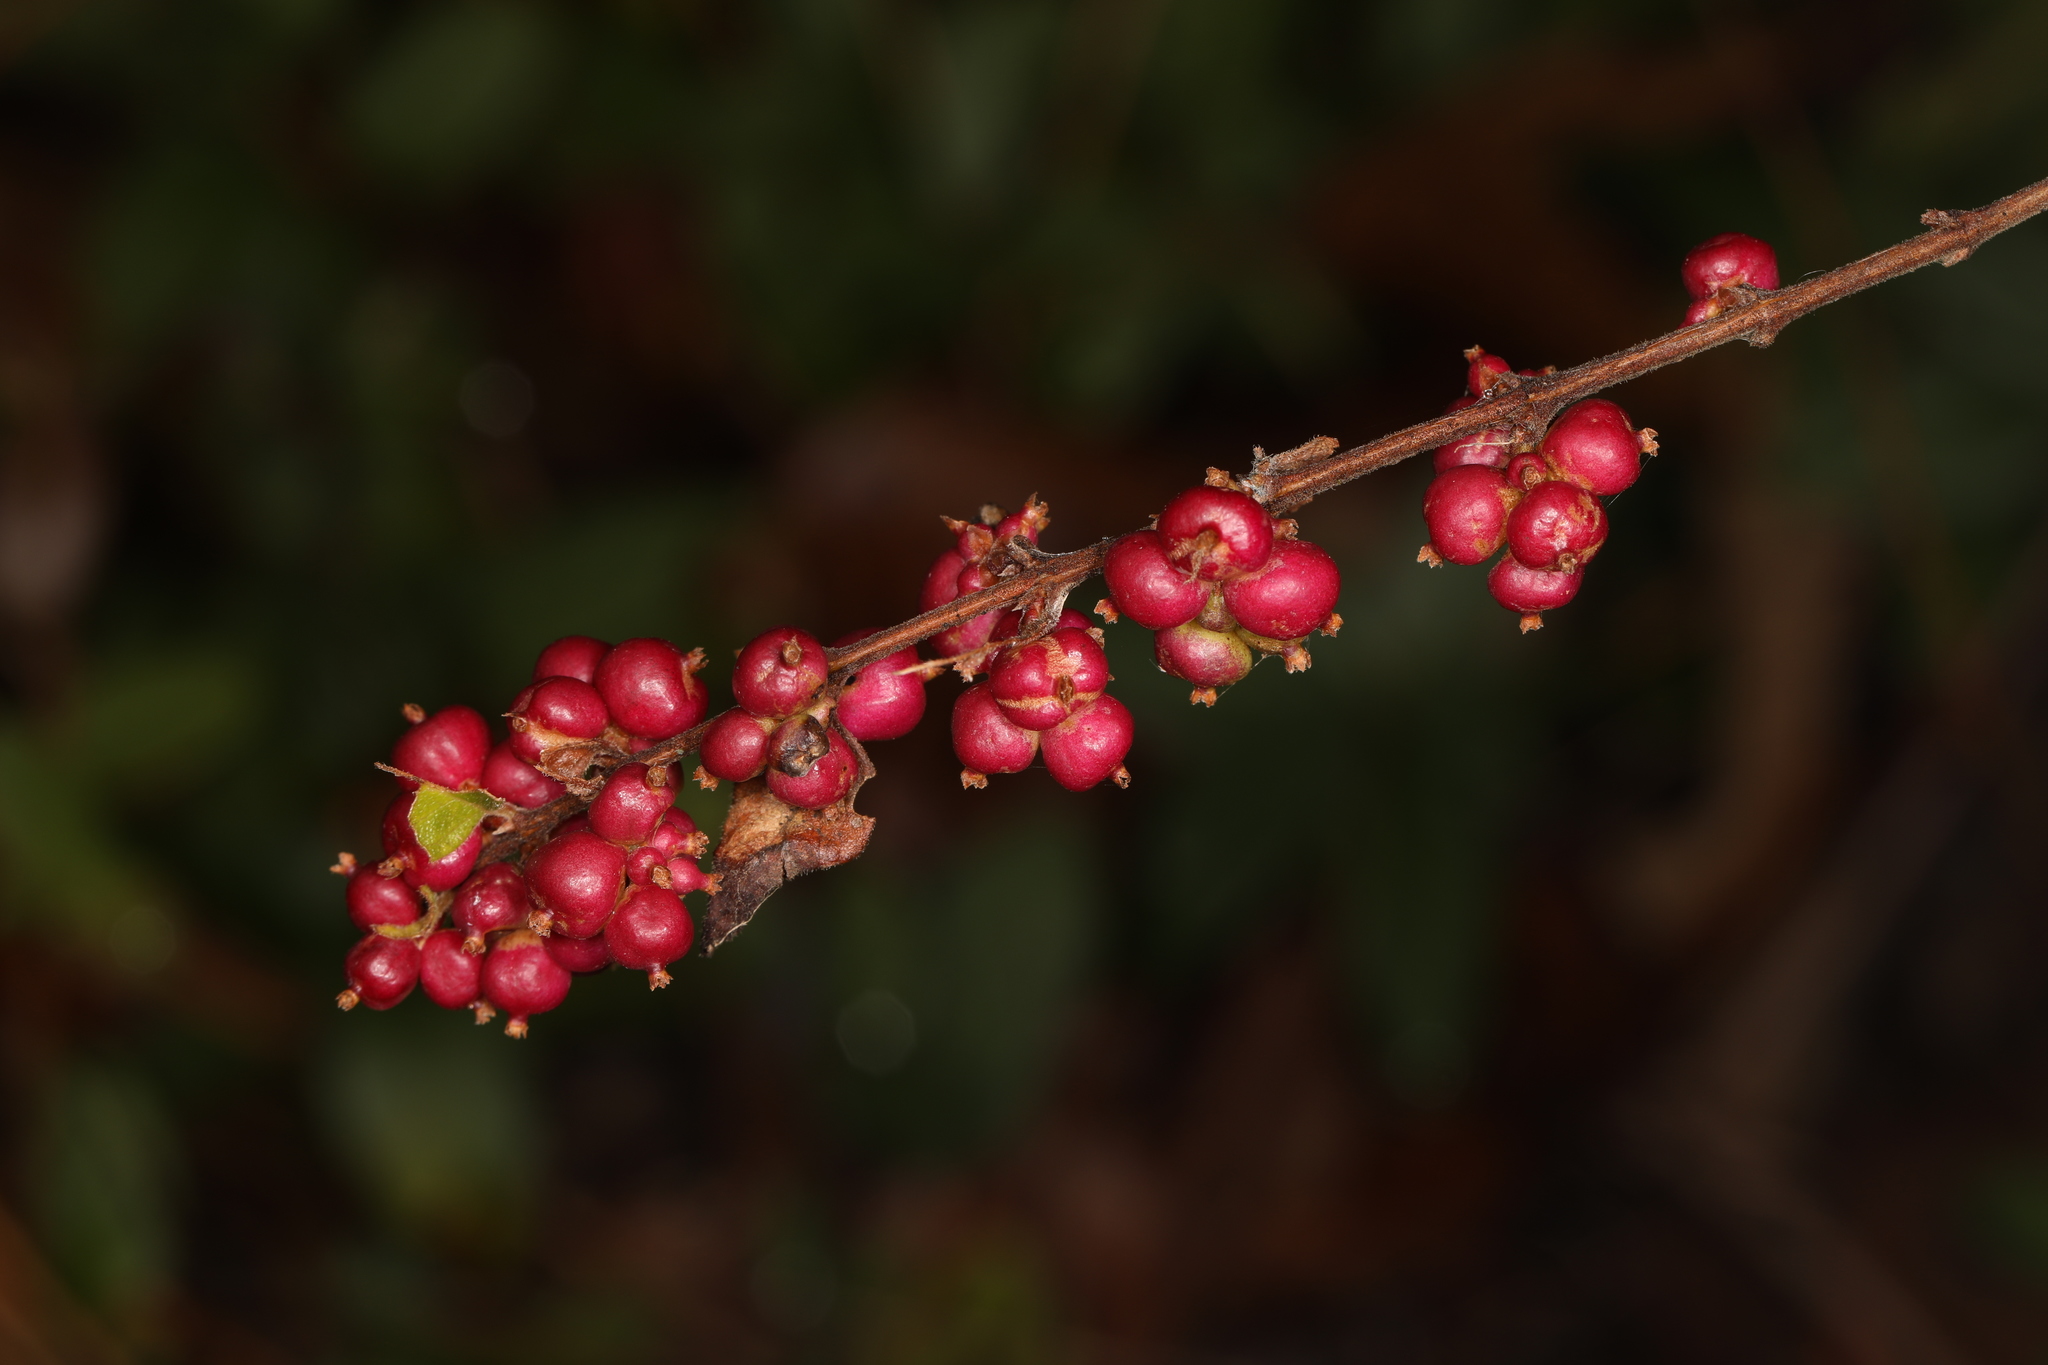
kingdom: Plantae
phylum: Tracheophyta
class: Magnoliopsida
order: Dipsacales
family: Caprifoliaceae
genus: Symphoricarpos
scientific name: Symphoricarpos orbiculatus
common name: Coralberry
